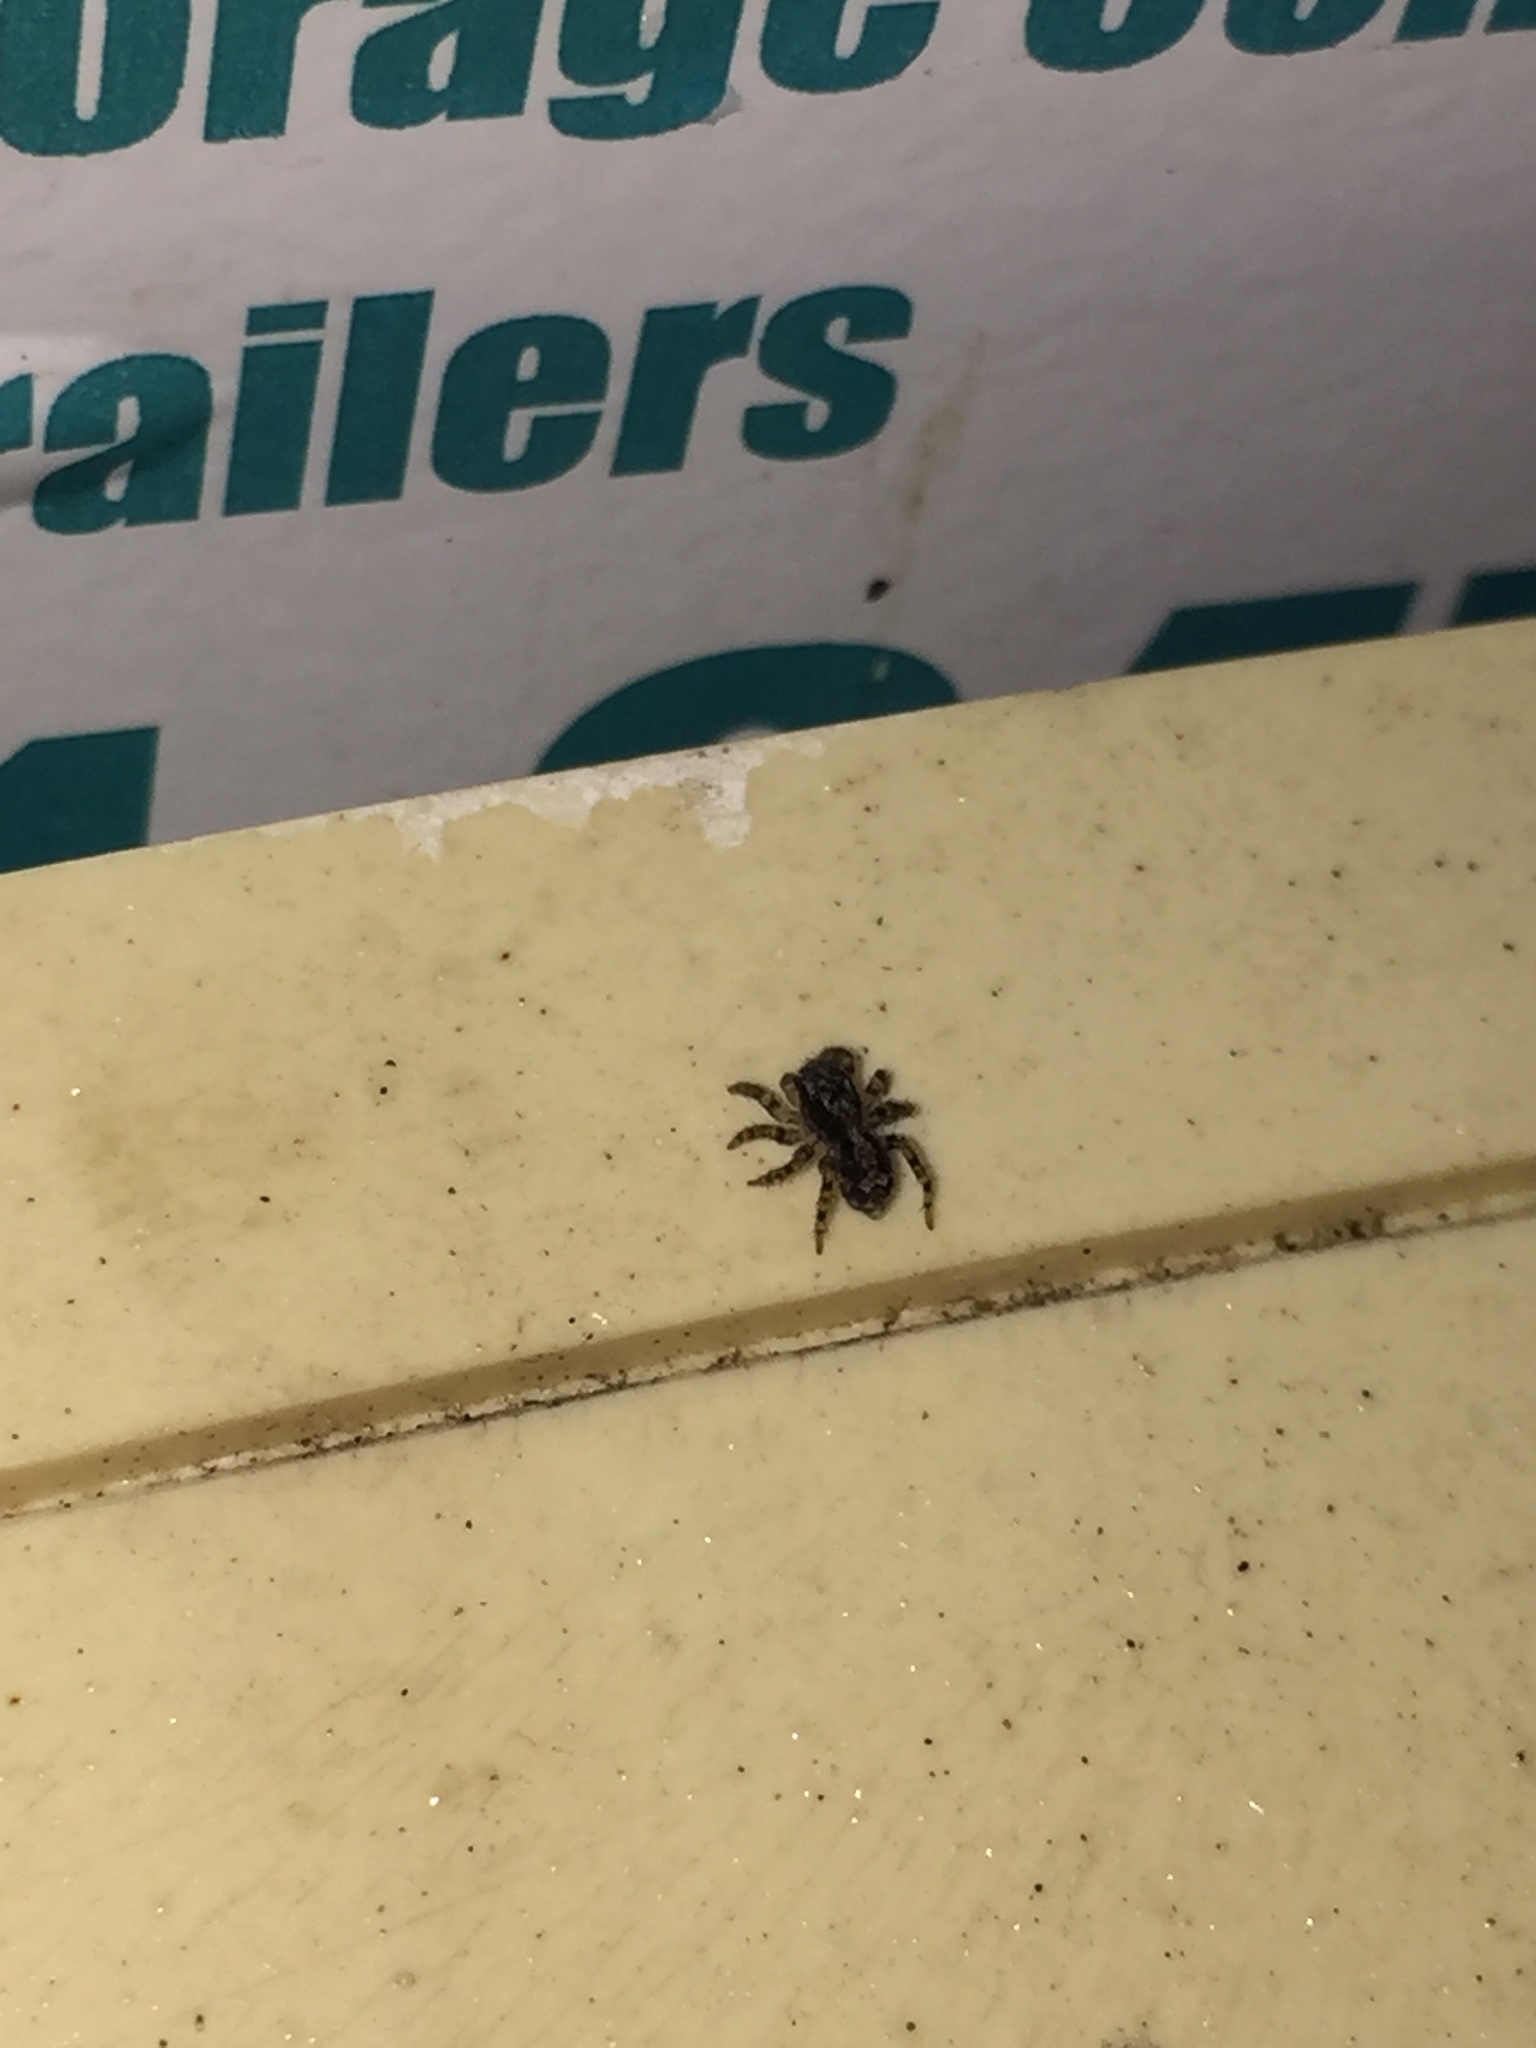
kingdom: Animalia
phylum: Arthropoda
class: Arachnida
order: Araneae
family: Salticidae
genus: Naphrys
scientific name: Naphrys pulex
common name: Flea jumping spider
